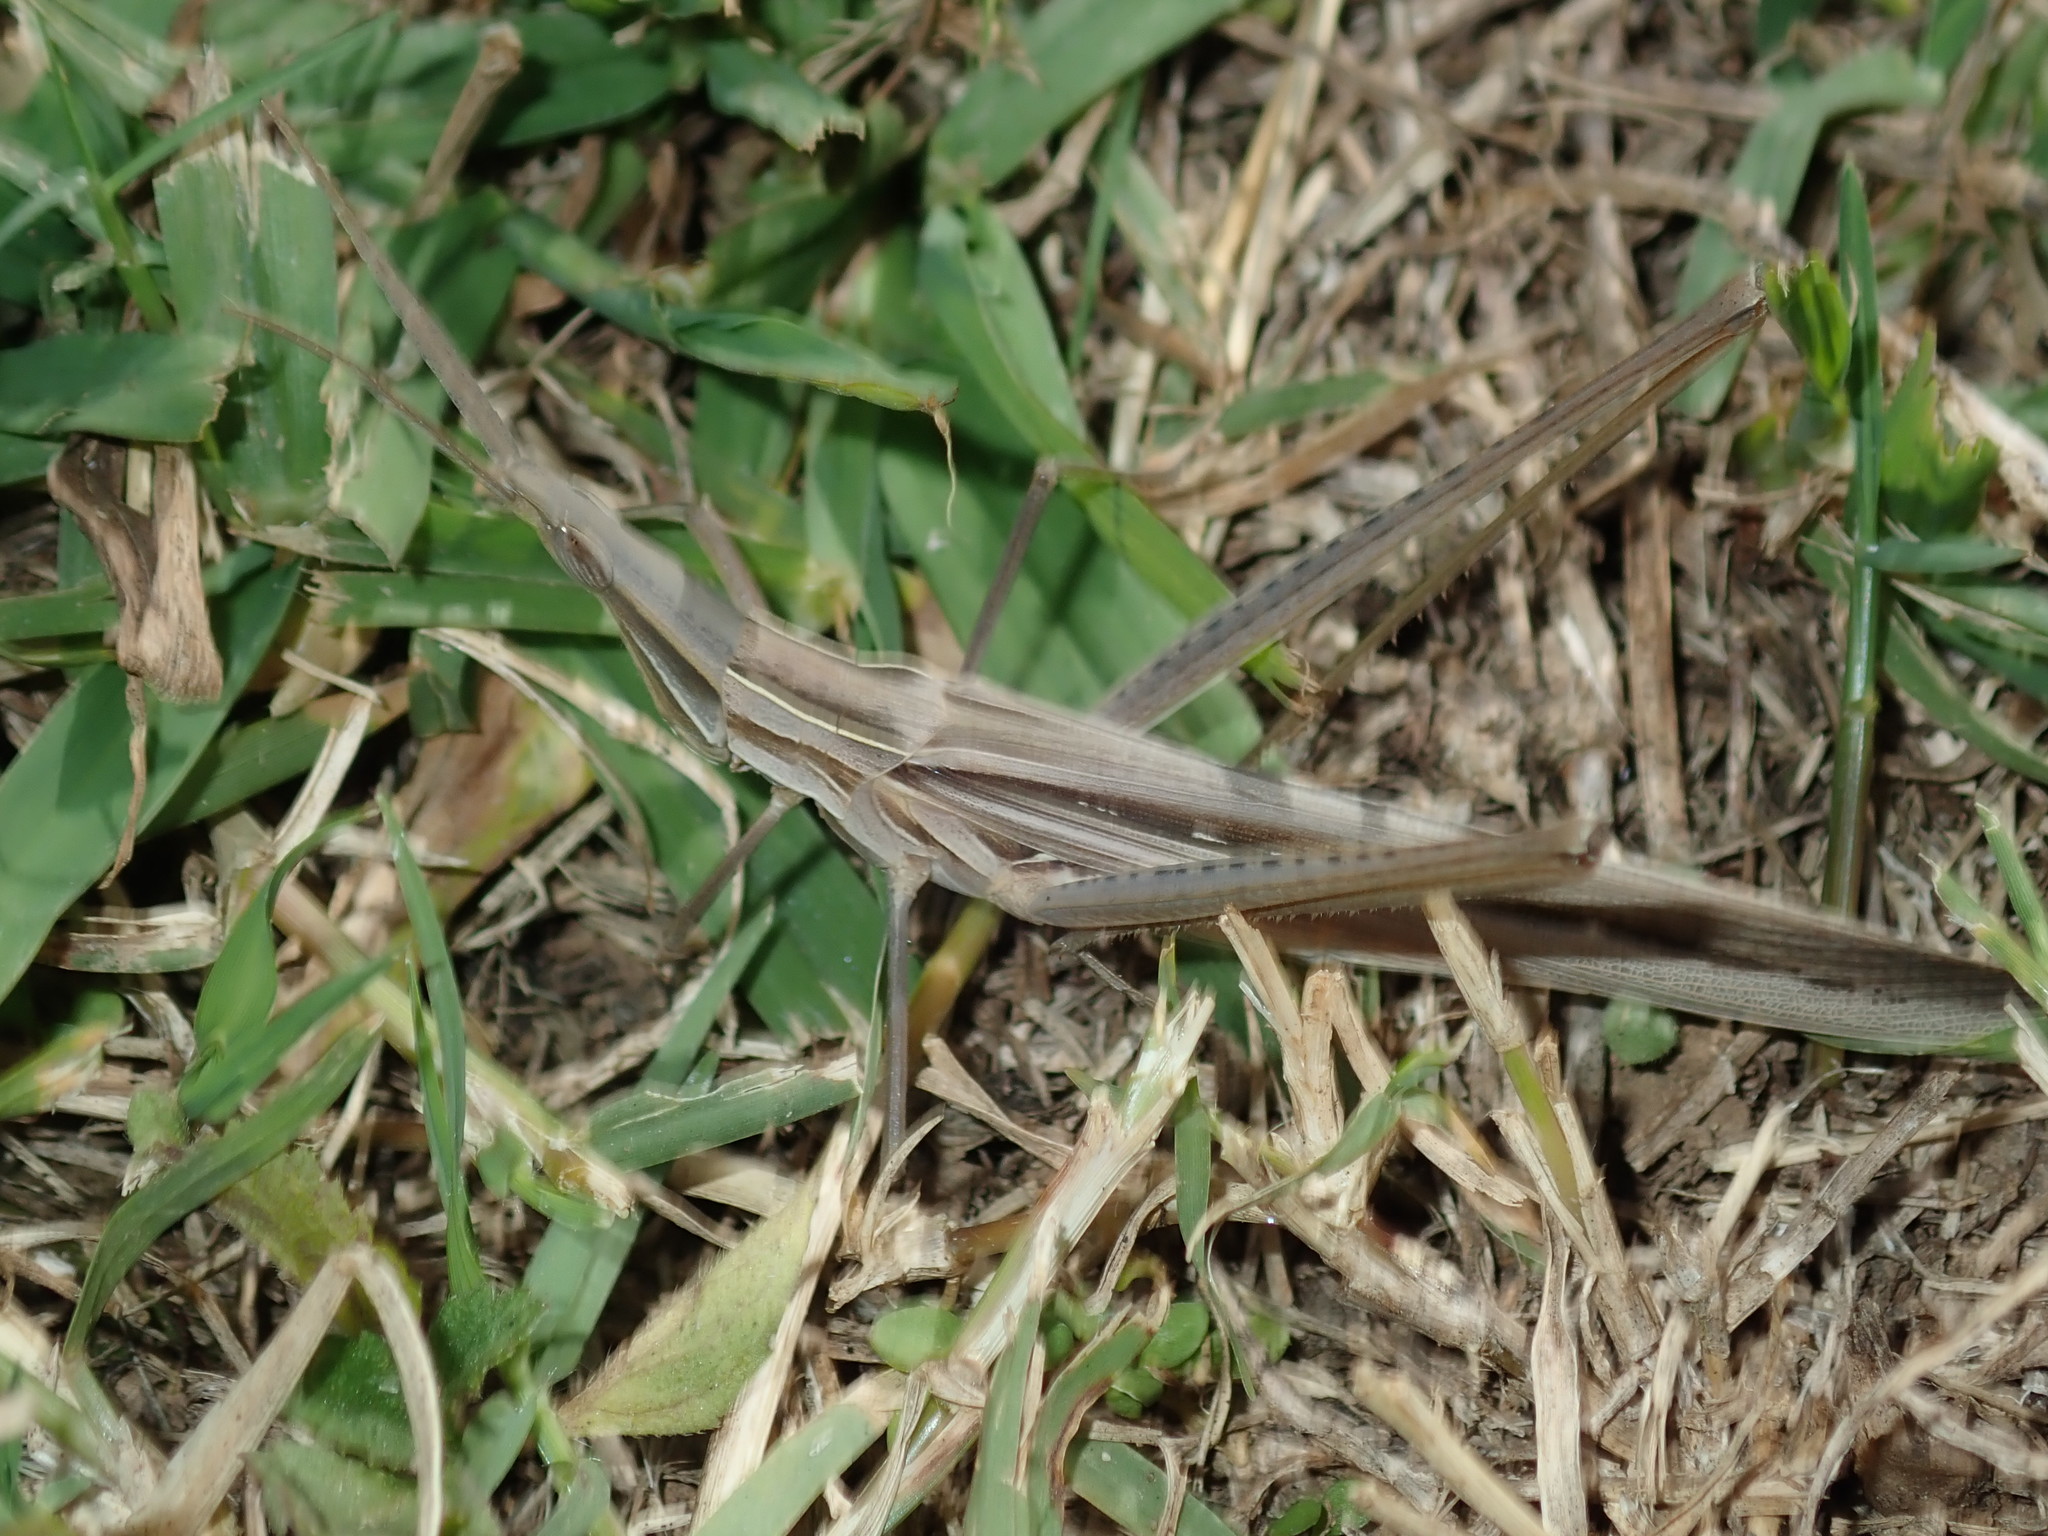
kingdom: Animalia
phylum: Arthropoda
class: Insecta
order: Orthoptera
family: Acrididae
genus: Acrida
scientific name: Acrida conica
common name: Giant green slantface
